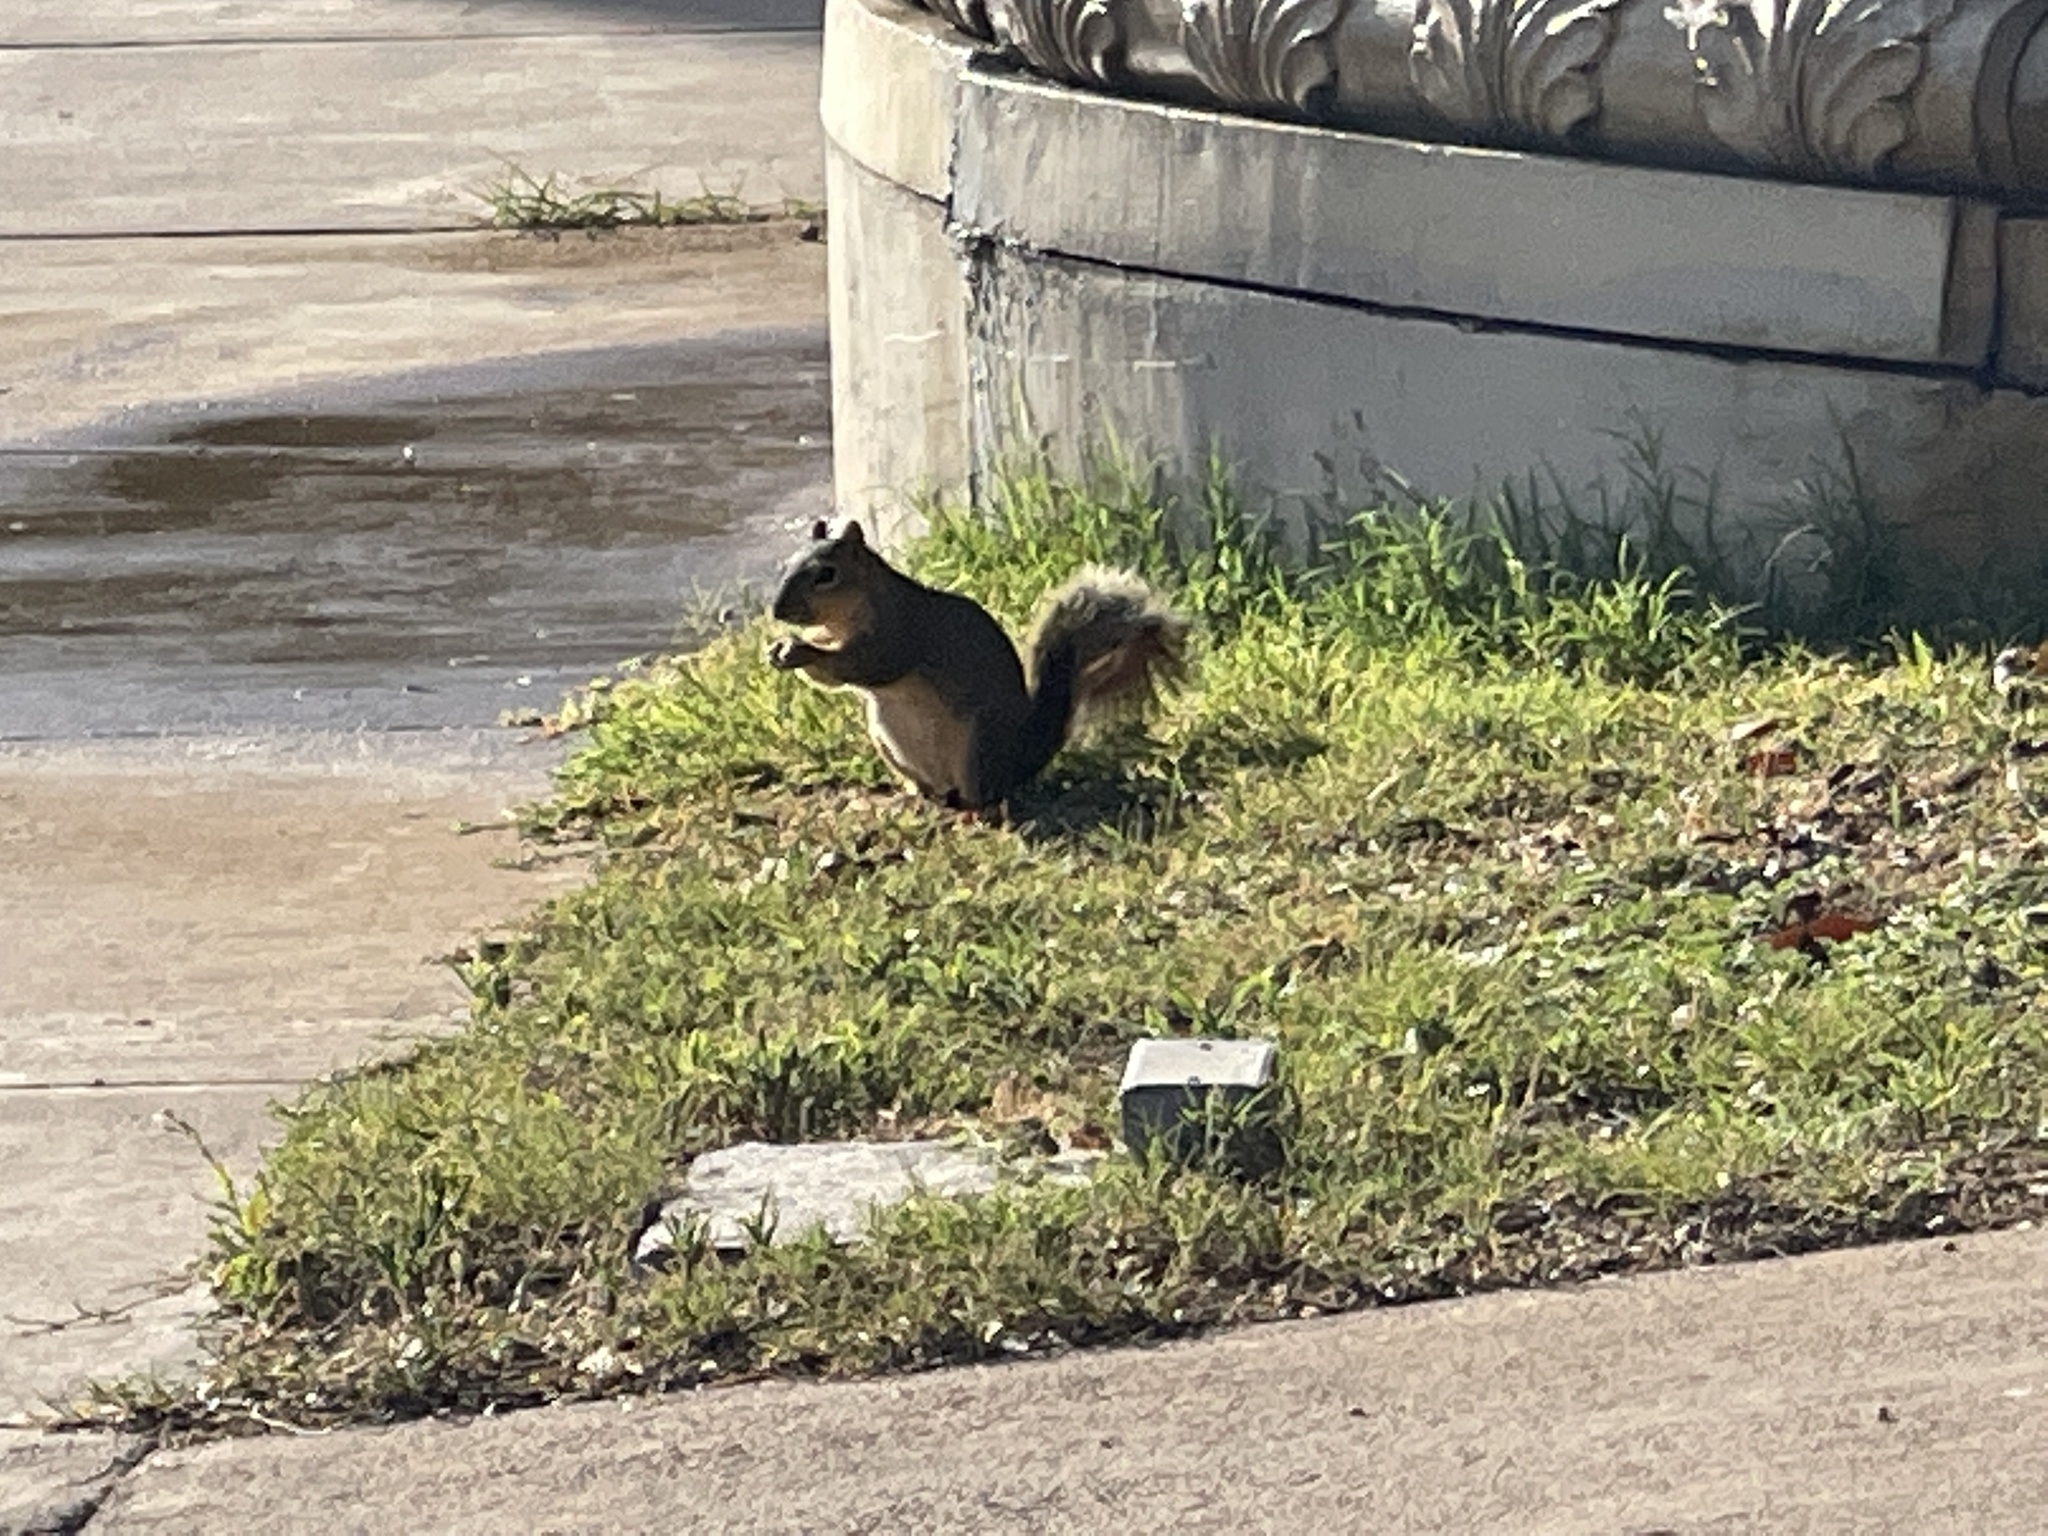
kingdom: Animalia
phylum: Chordata
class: Mammalia
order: Rodentia
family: Sciuridae
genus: Sciurus
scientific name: Sciurus niger
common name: Fox squirrel
